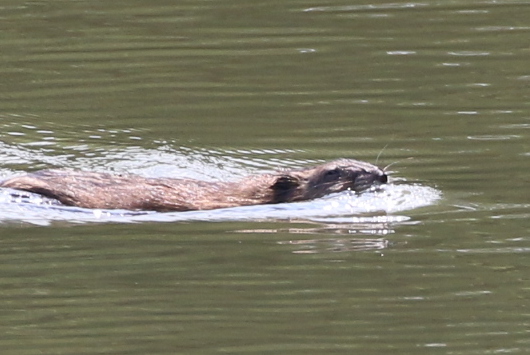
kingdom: Animalia
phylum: Chordata
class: Mammalia
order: Rodentia
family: Cricetidae
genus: Ondatra
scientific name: Ondatra zibethicus
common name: Muskrat
